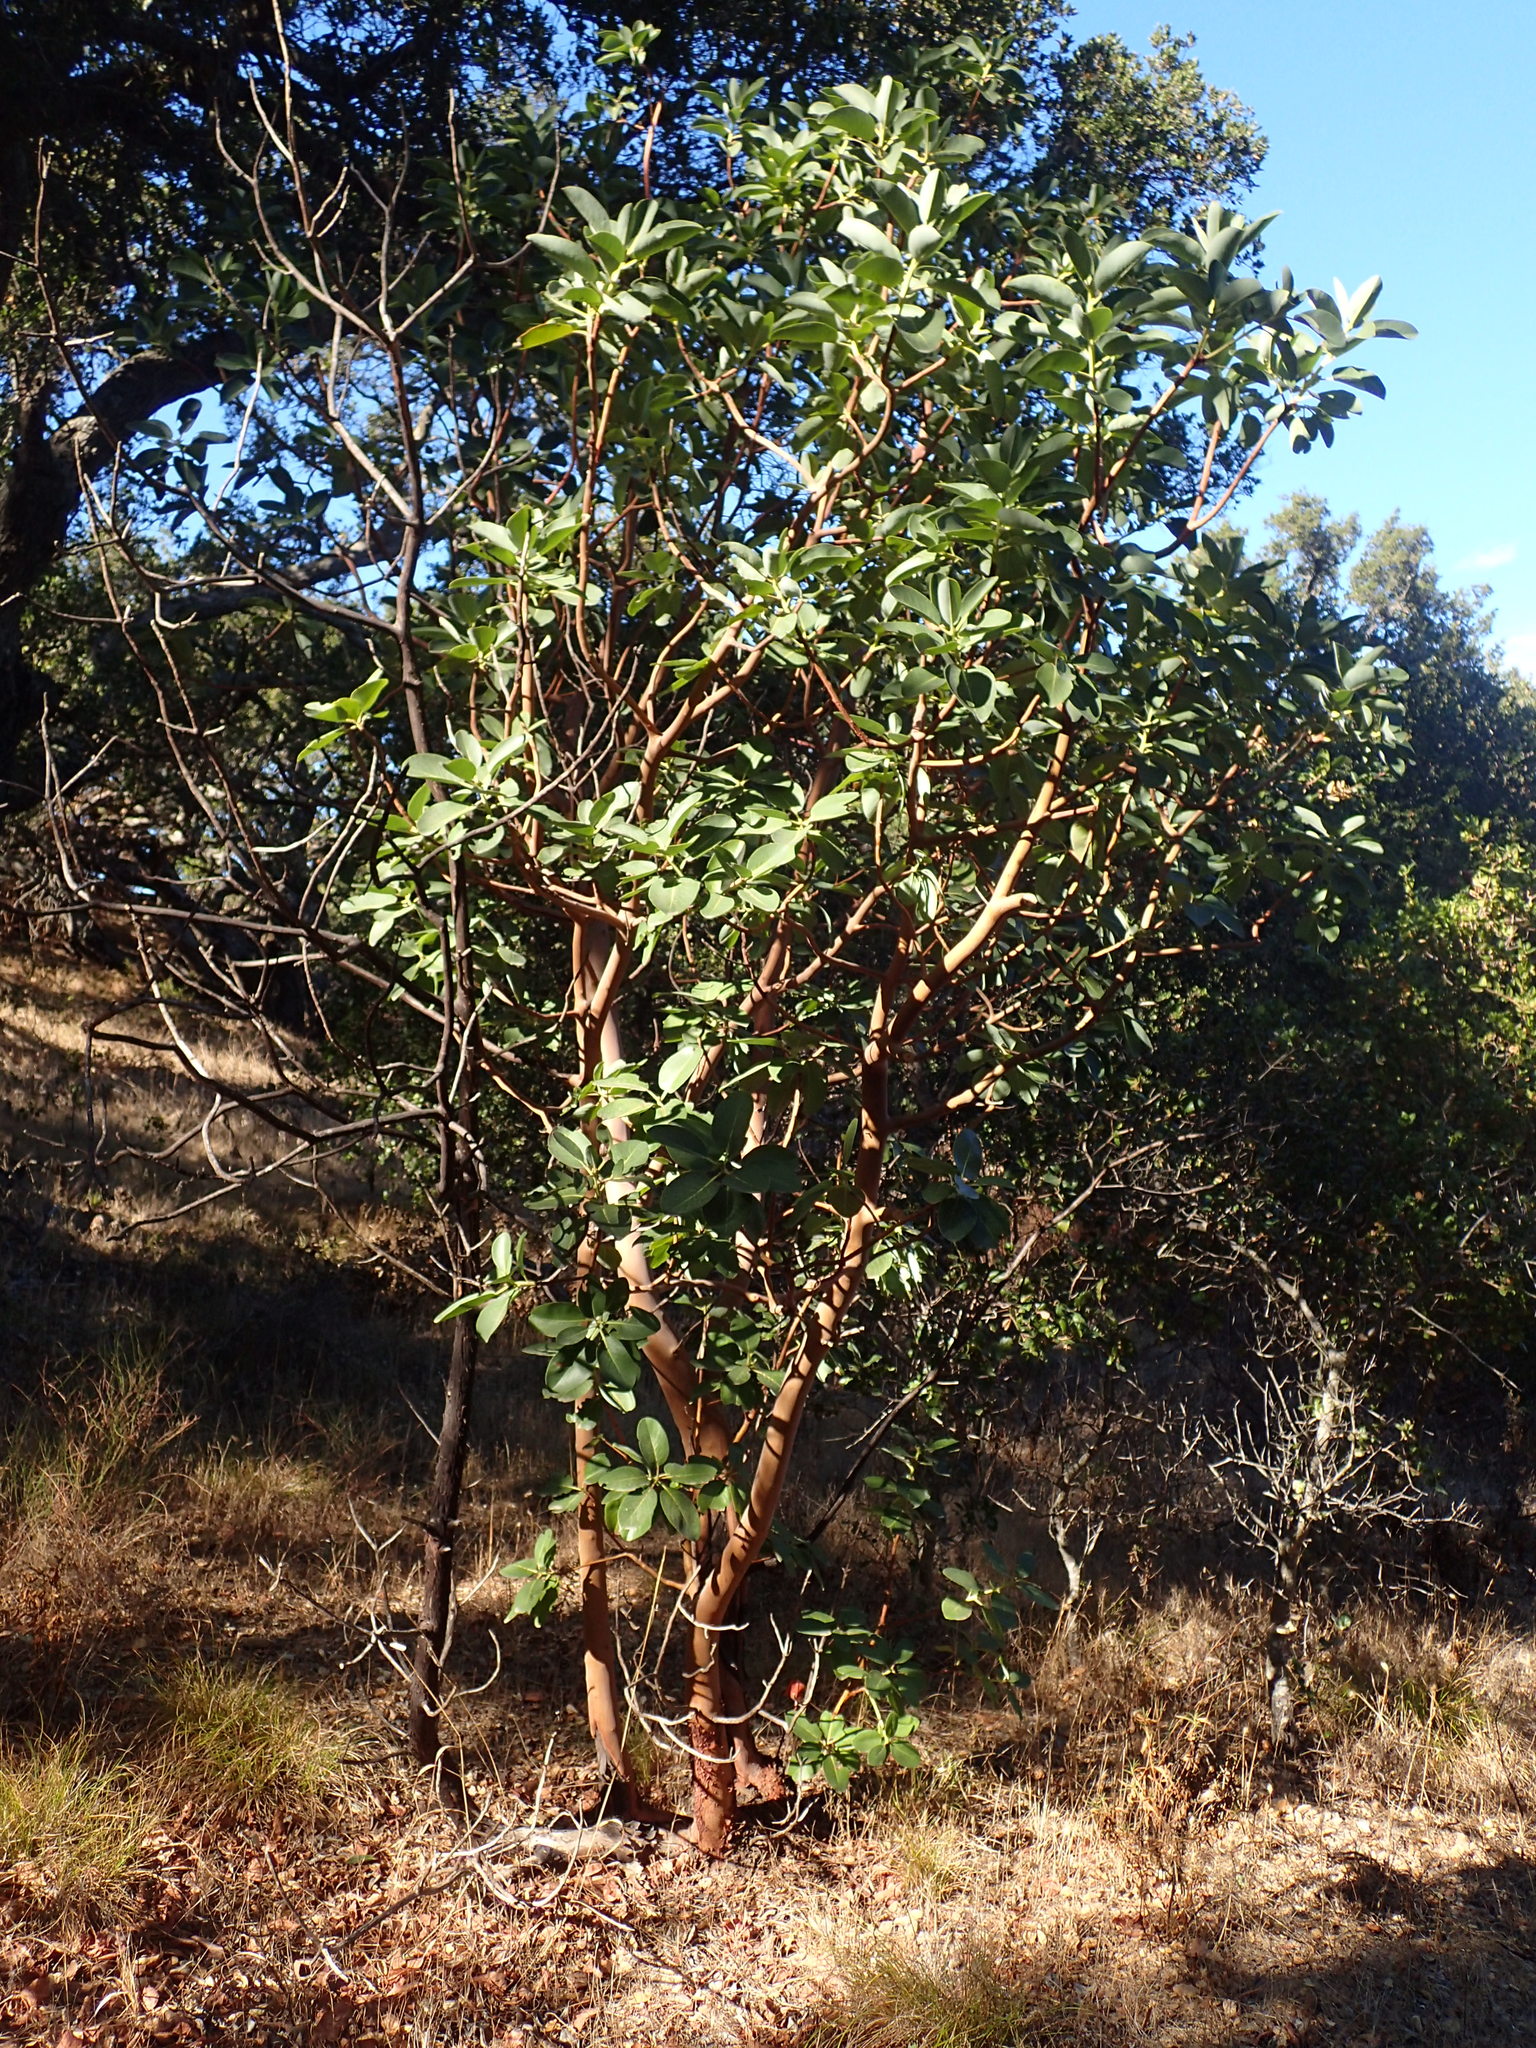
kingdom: Plantae
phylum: Tracheophyta
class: Magnoliopsida
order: Ericales
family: Ericaceae
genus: Arbutus
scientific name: Arbutus menziesii
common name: Pacific madrone
